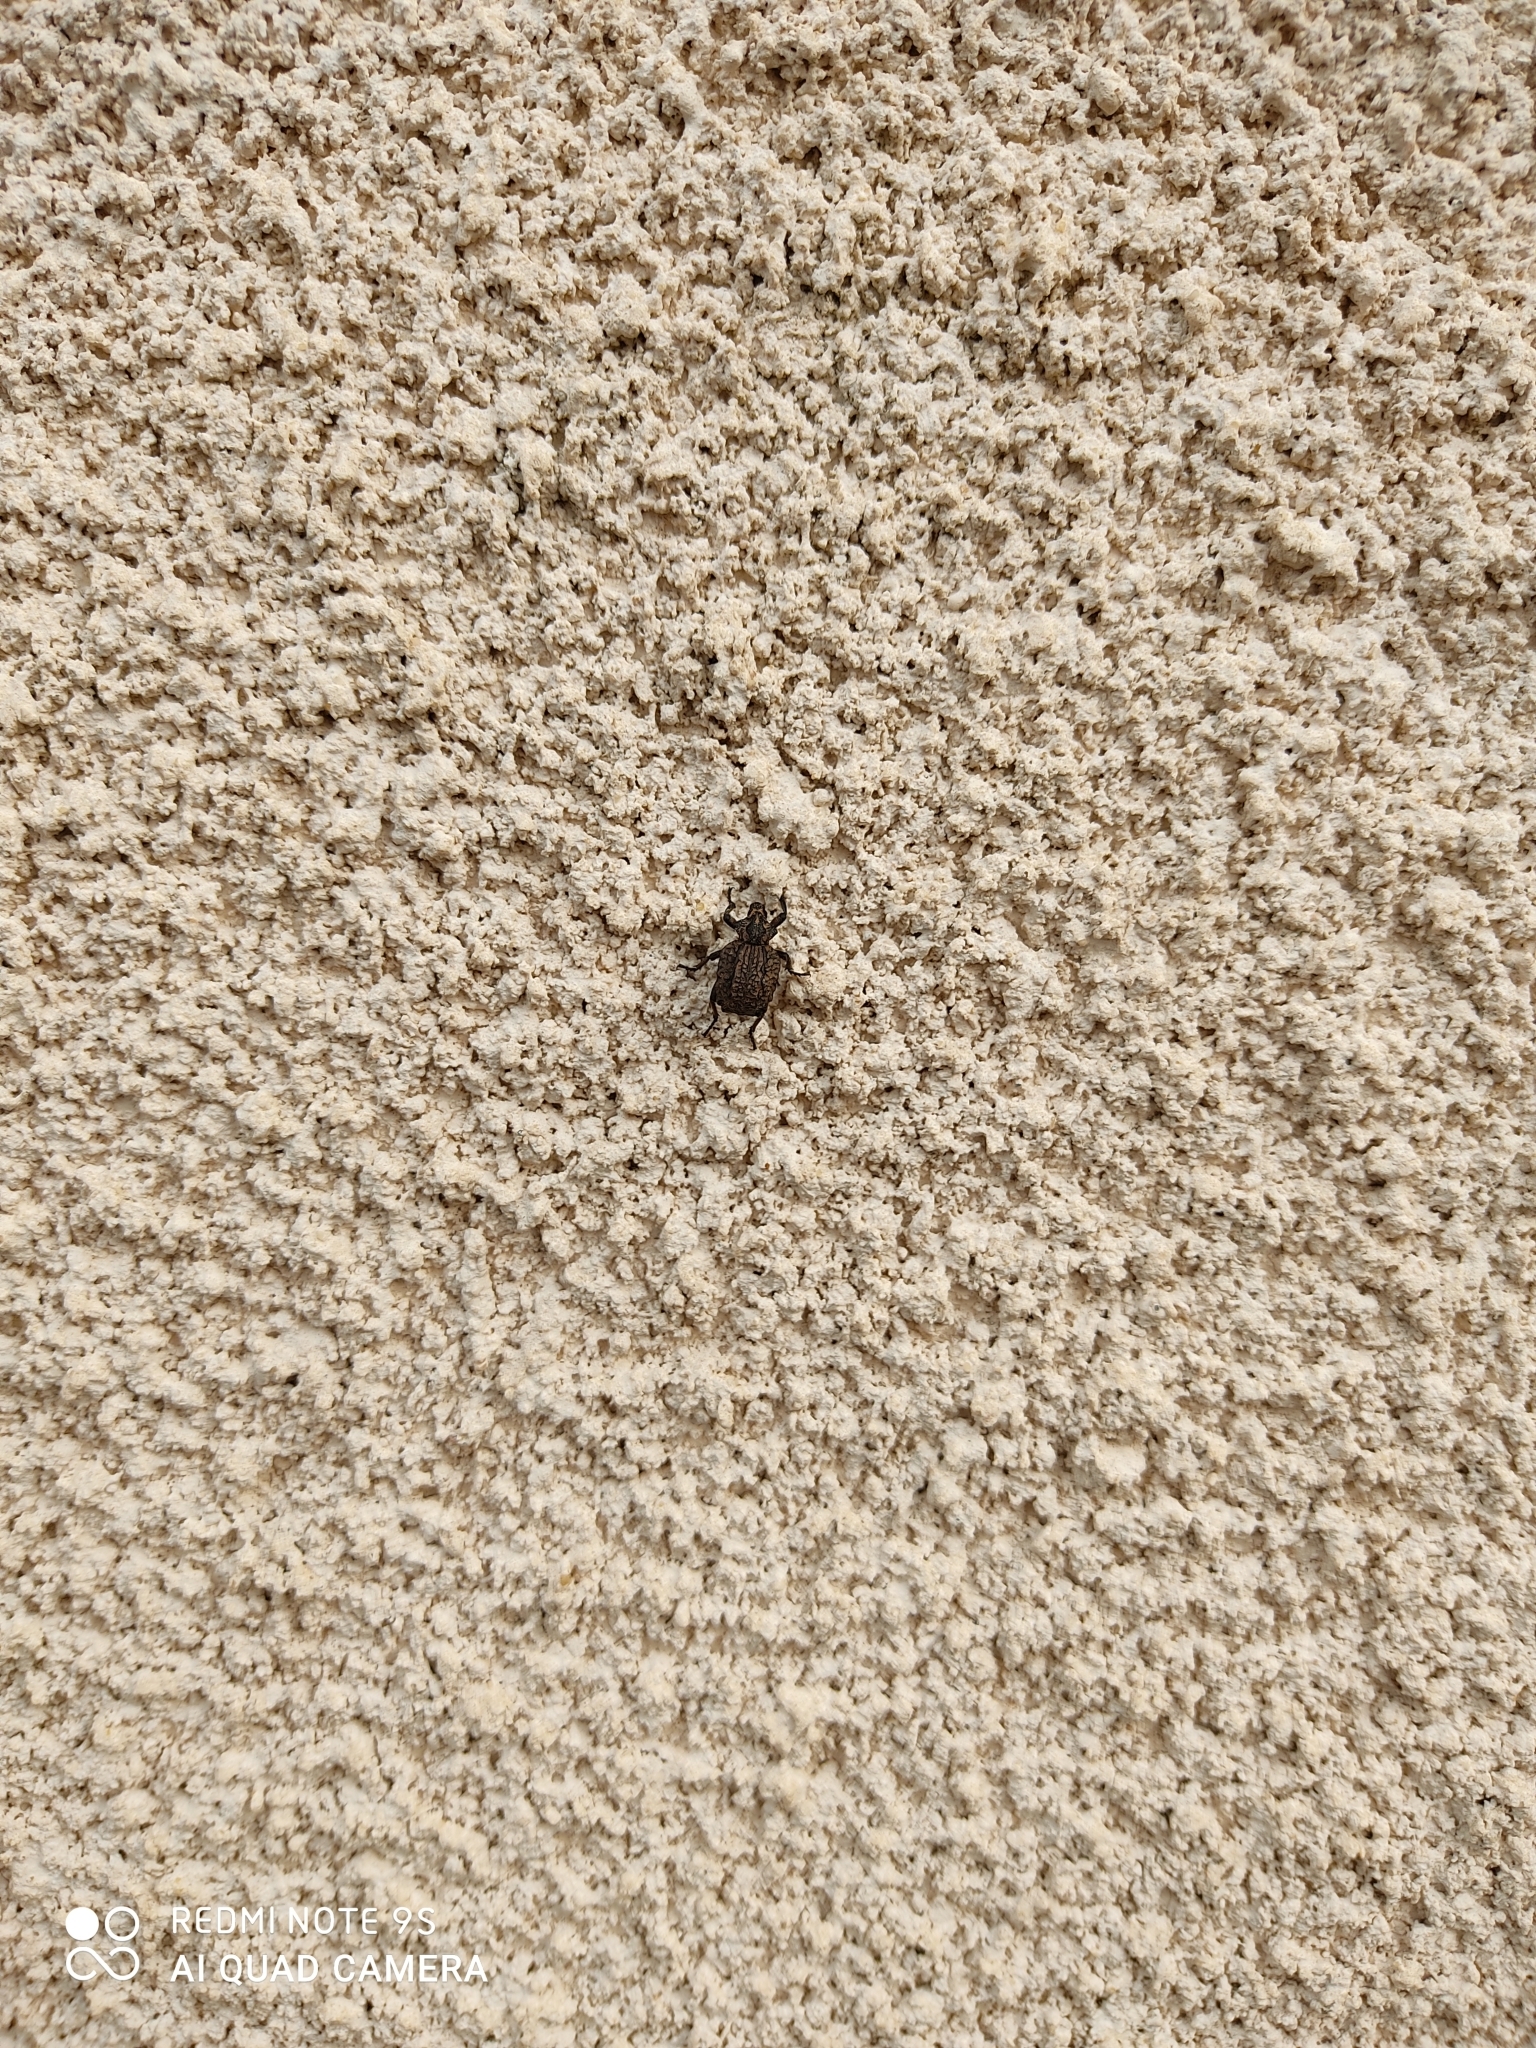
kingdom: Animalia
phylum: Arthropoda
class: Insecta
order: Coleoptera
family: Brachyceridae
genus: Brachycerus
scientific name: Brachycerus undatus
